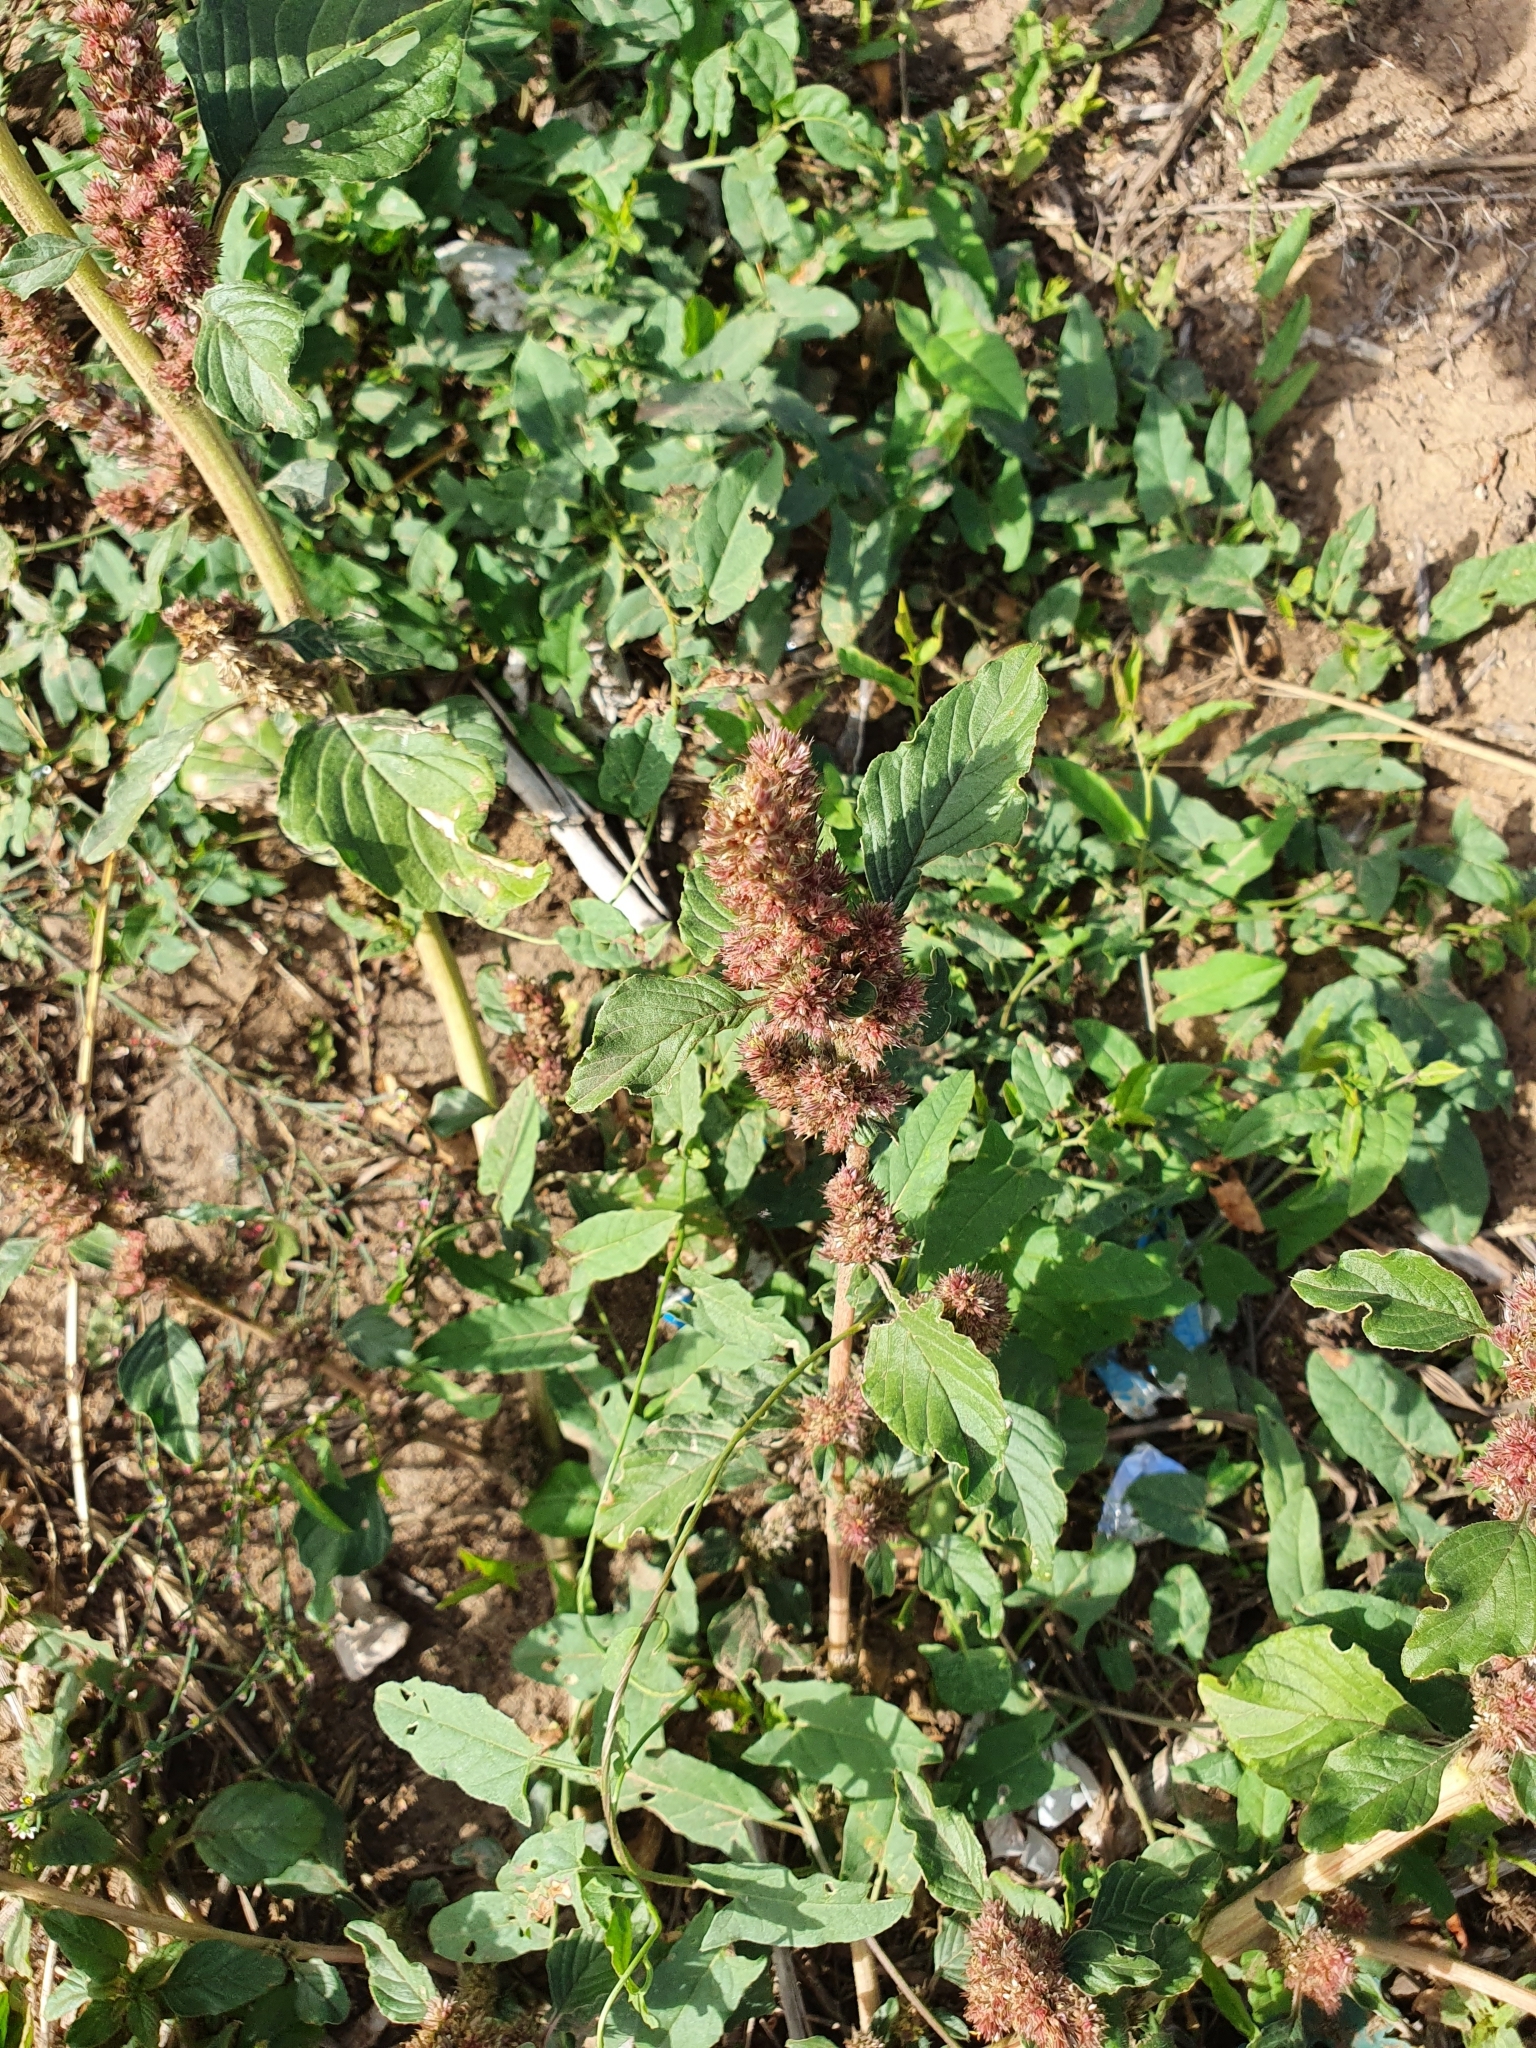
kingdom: Plantae
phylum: Tracheophyta
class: Magnoliopsida
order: Caryophyllales
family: Amaranthaceae
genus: Amaranthus
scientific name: Amaranthus retroflexus
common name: Redroot amaranth
